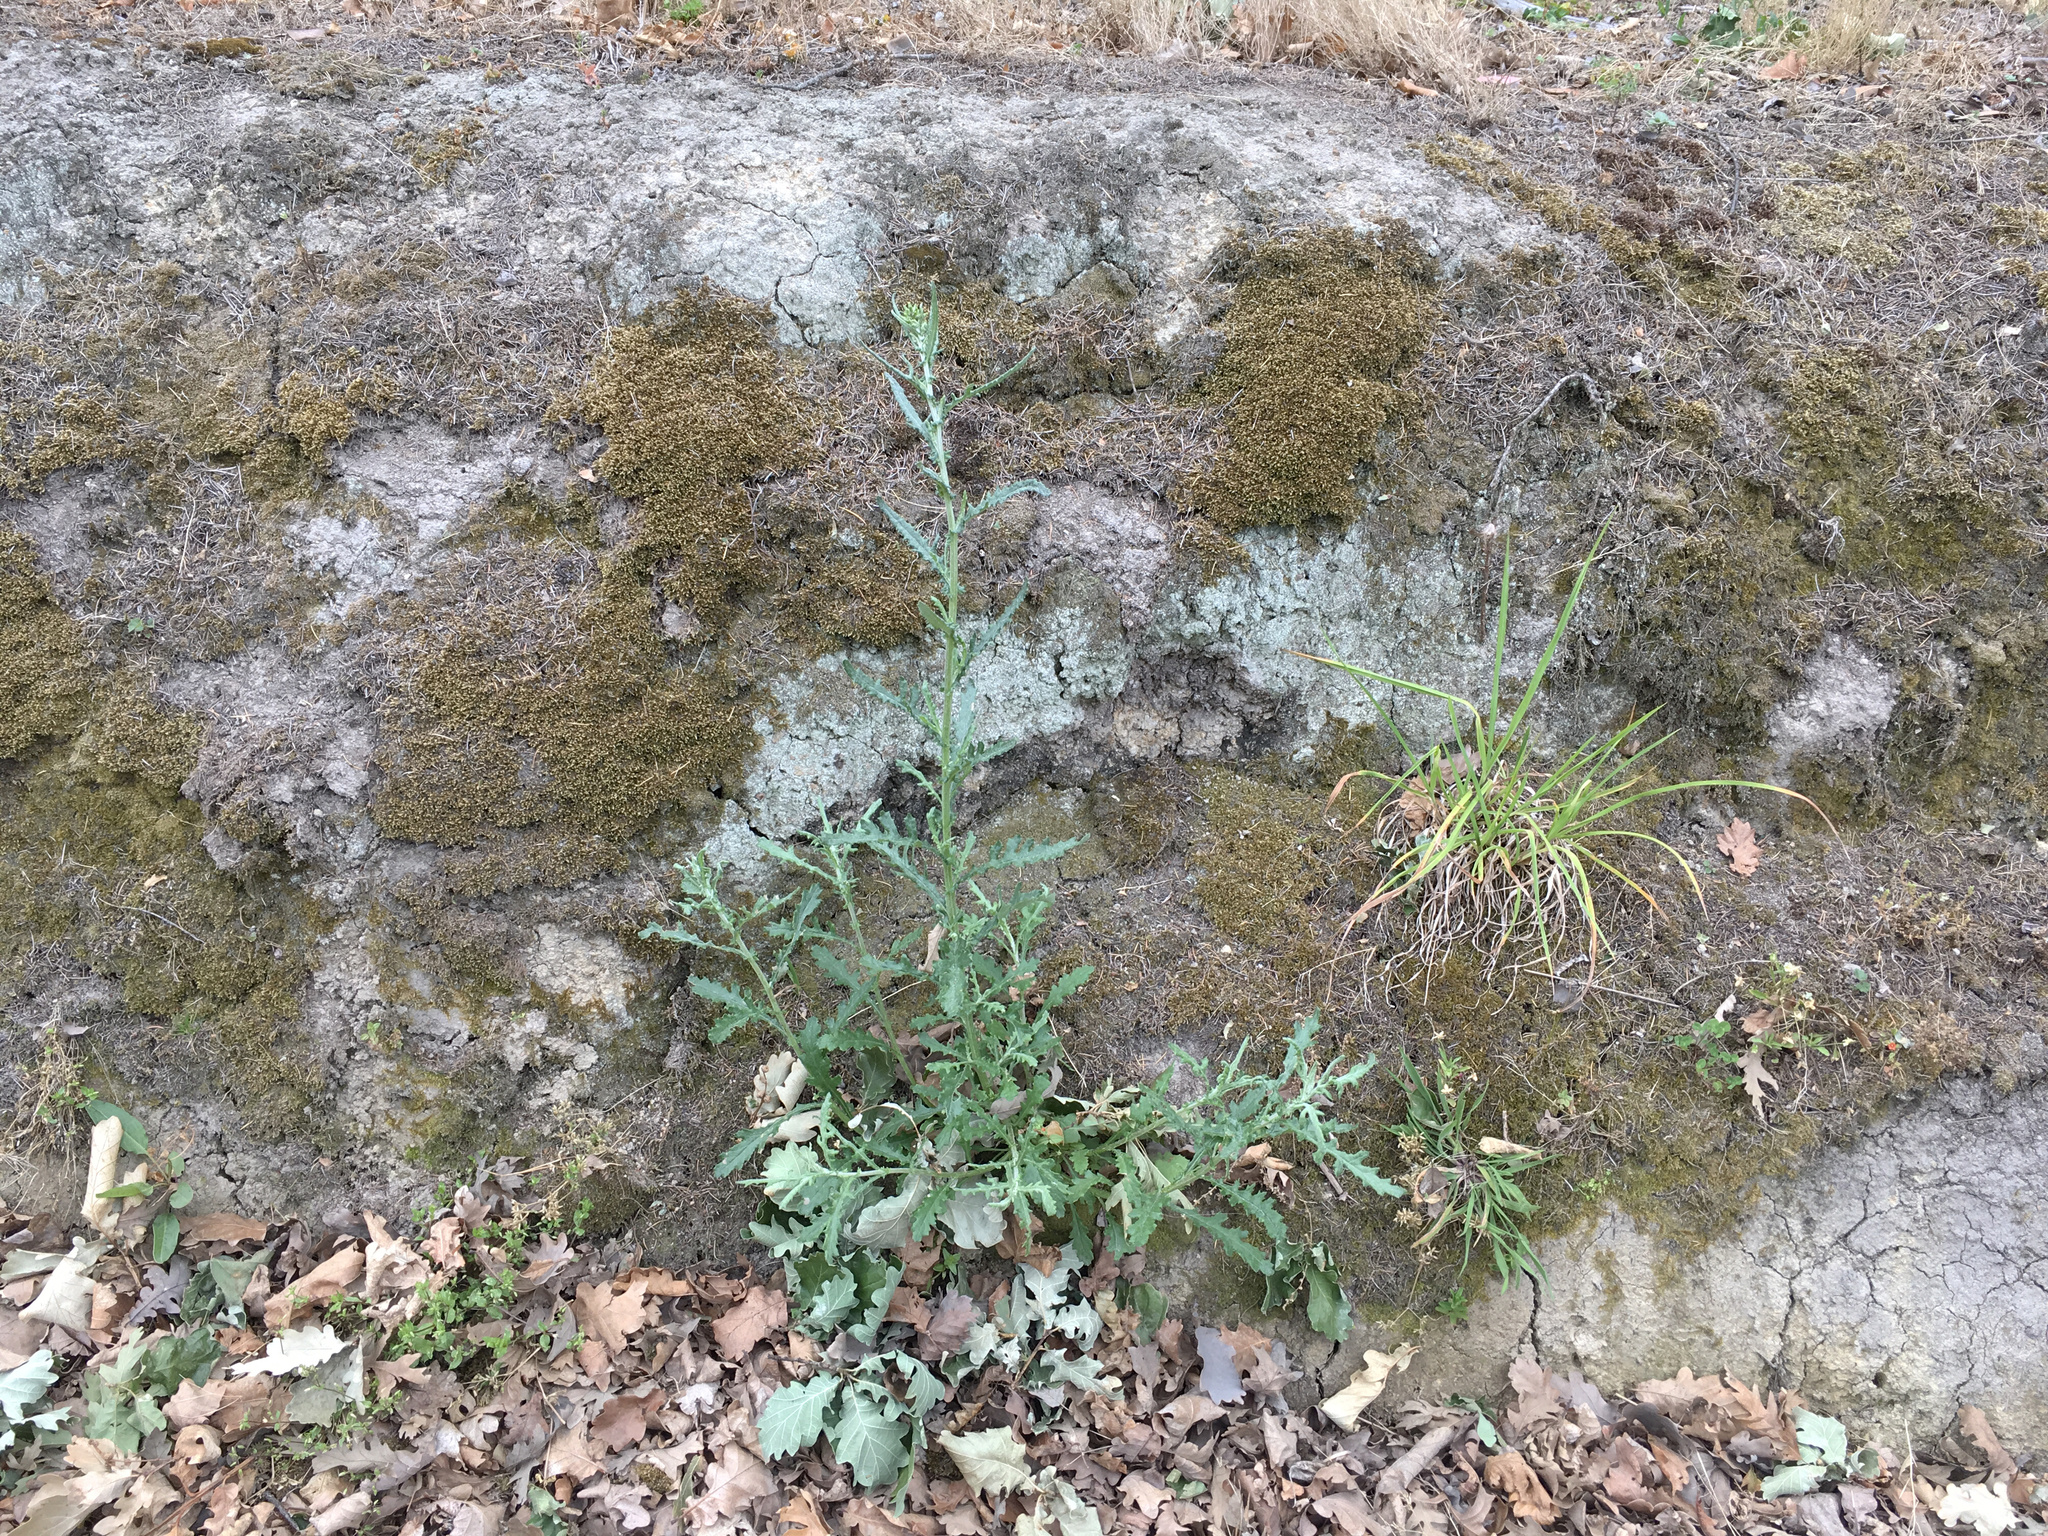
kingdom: Plantae
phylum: Tracheophyta
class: Magnoliopsida
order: Asterales
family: Asteraceae
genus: Senecio
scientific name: Senecio glomeratus
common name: Cutleaf burnweed
